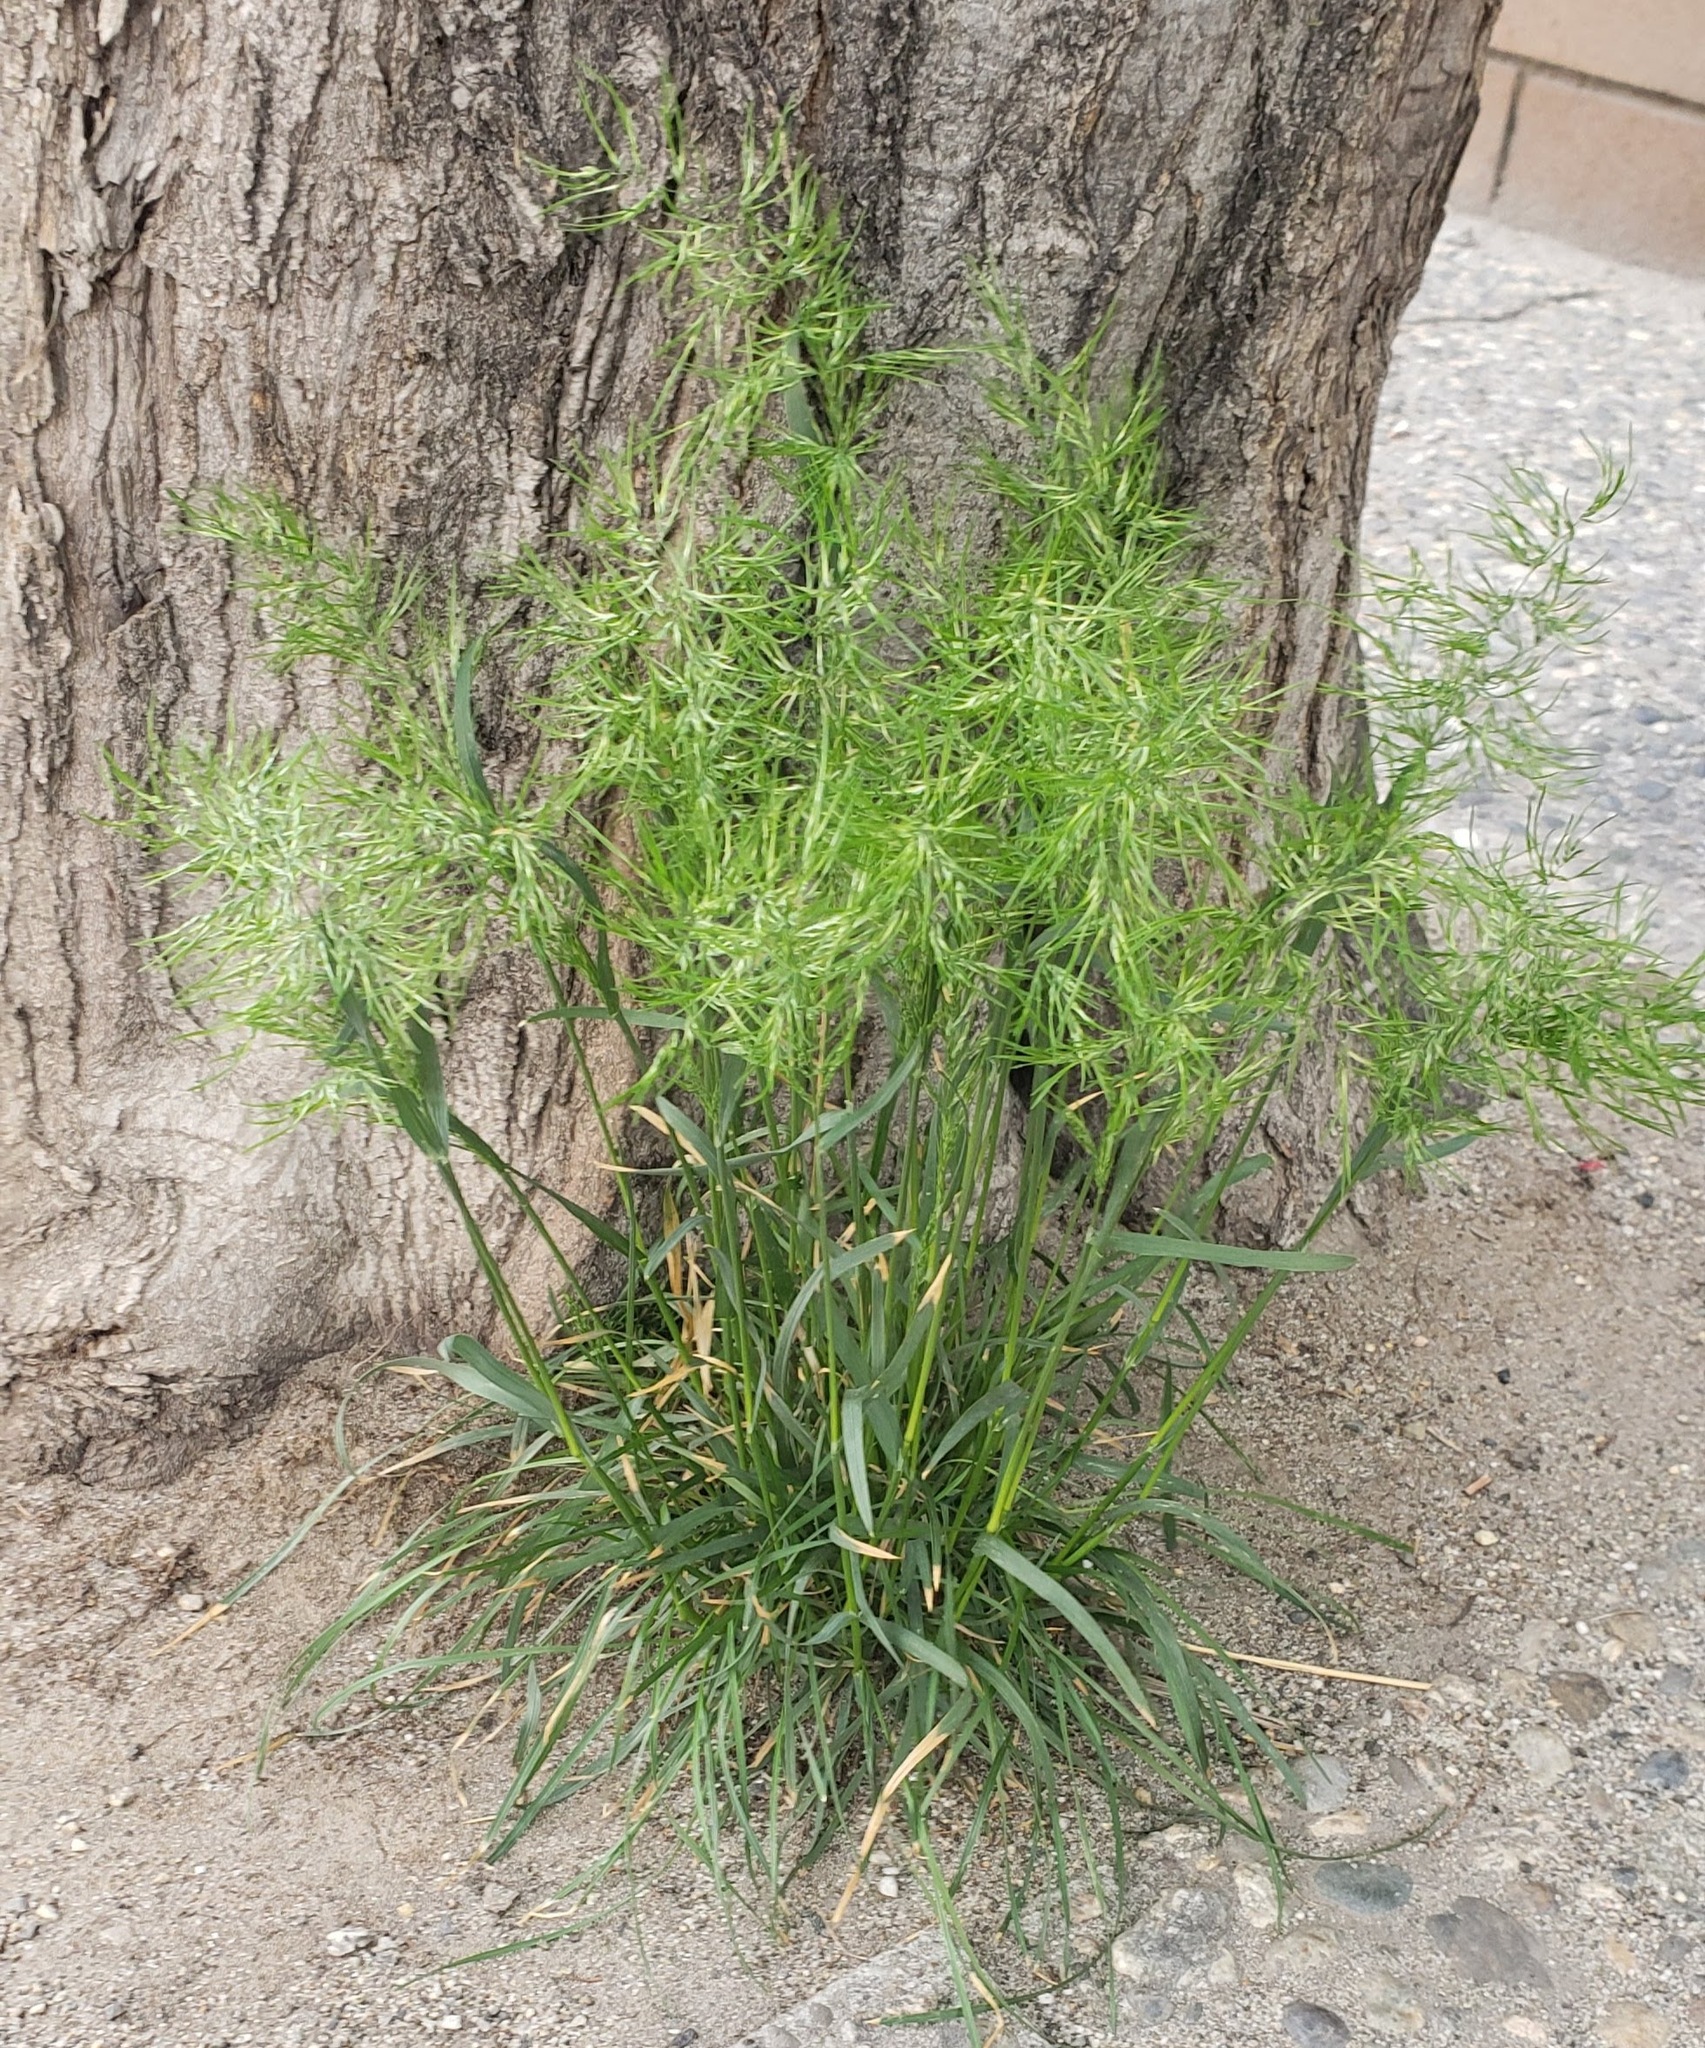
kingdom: Plantae
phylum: Tracheophyta
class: Liliopsida
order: Poales
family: Poaceae
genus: Poa
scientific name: Poa bulbosa
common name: Bulbous bluegrass
